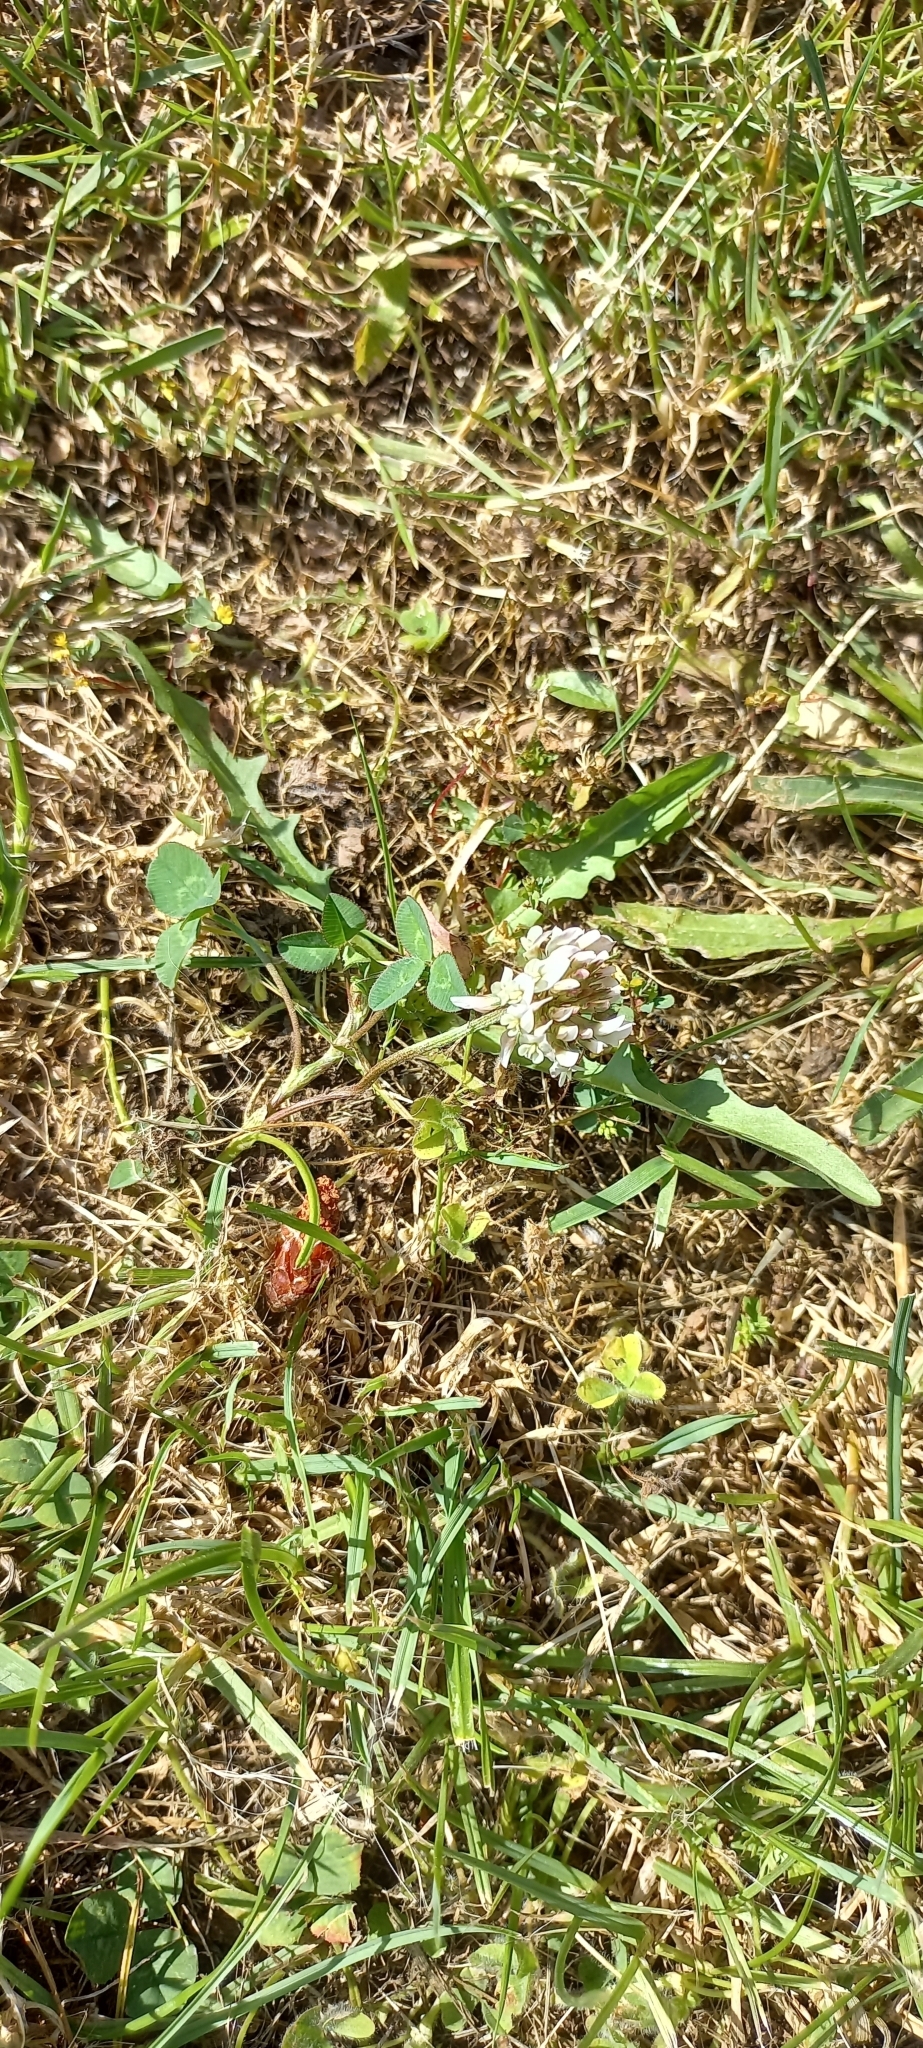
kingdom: Plantae
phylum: Tracheophyta
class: Magnoliopsida
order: Fabales
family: Fabaceae
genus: Trifolium
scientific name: Trifolium repens
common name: White clover
